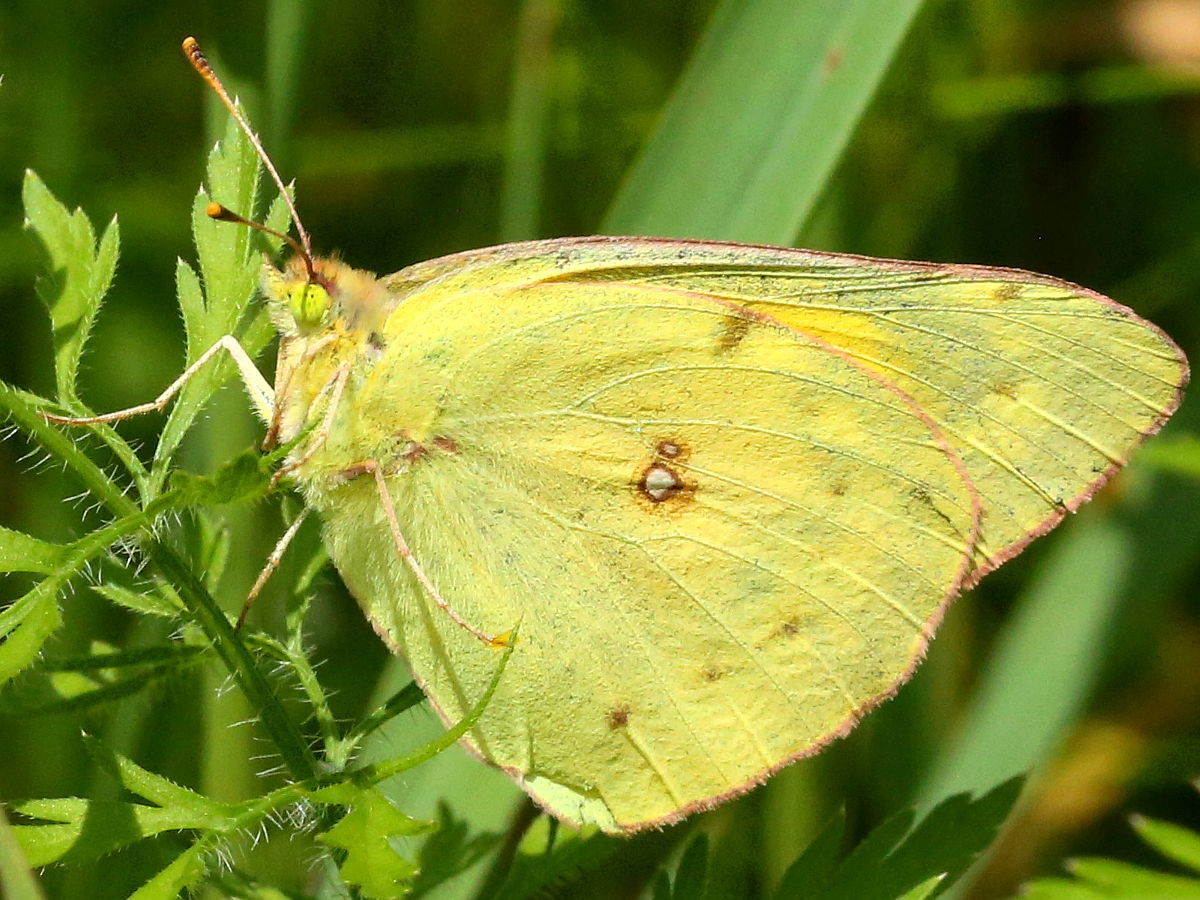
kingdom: Animalia
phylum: Arthropoda
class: Insecta
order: Lepidoptera
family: Pieridae
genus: Colias
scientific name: Colias eurytheme
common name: Alfalfa butterfly
